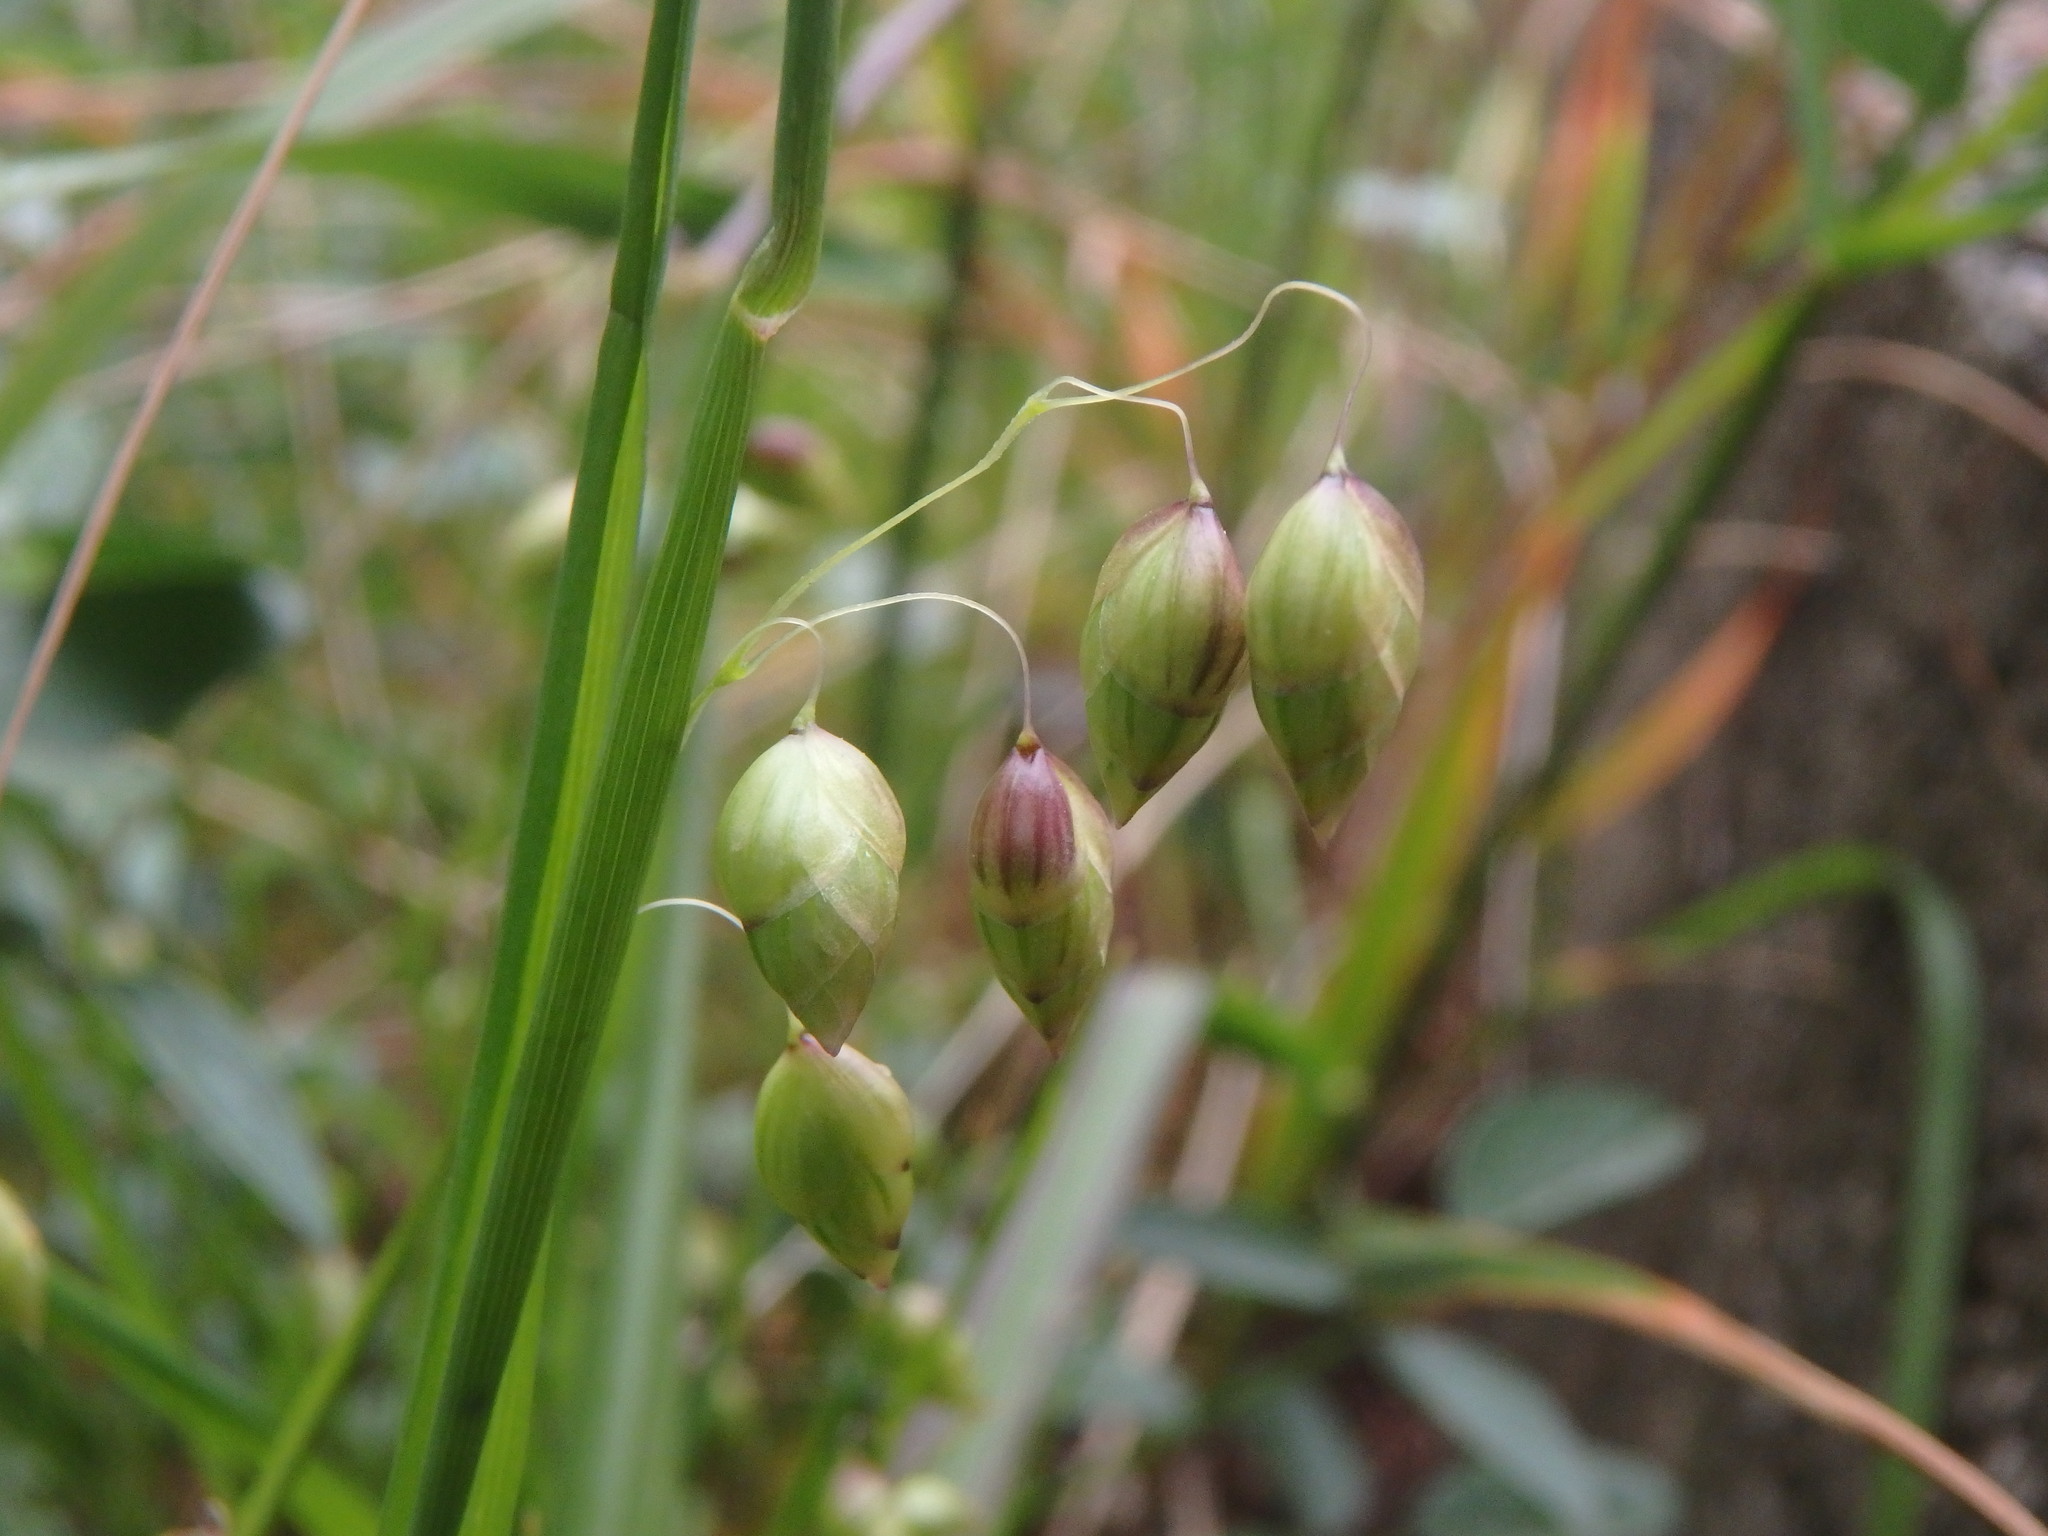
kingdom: Plantae
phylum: Tracheophyta
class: Liliopsida
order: Poales
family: Poaceae
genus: Briza
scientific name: Briza minor
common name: Lesser quaking-grass
